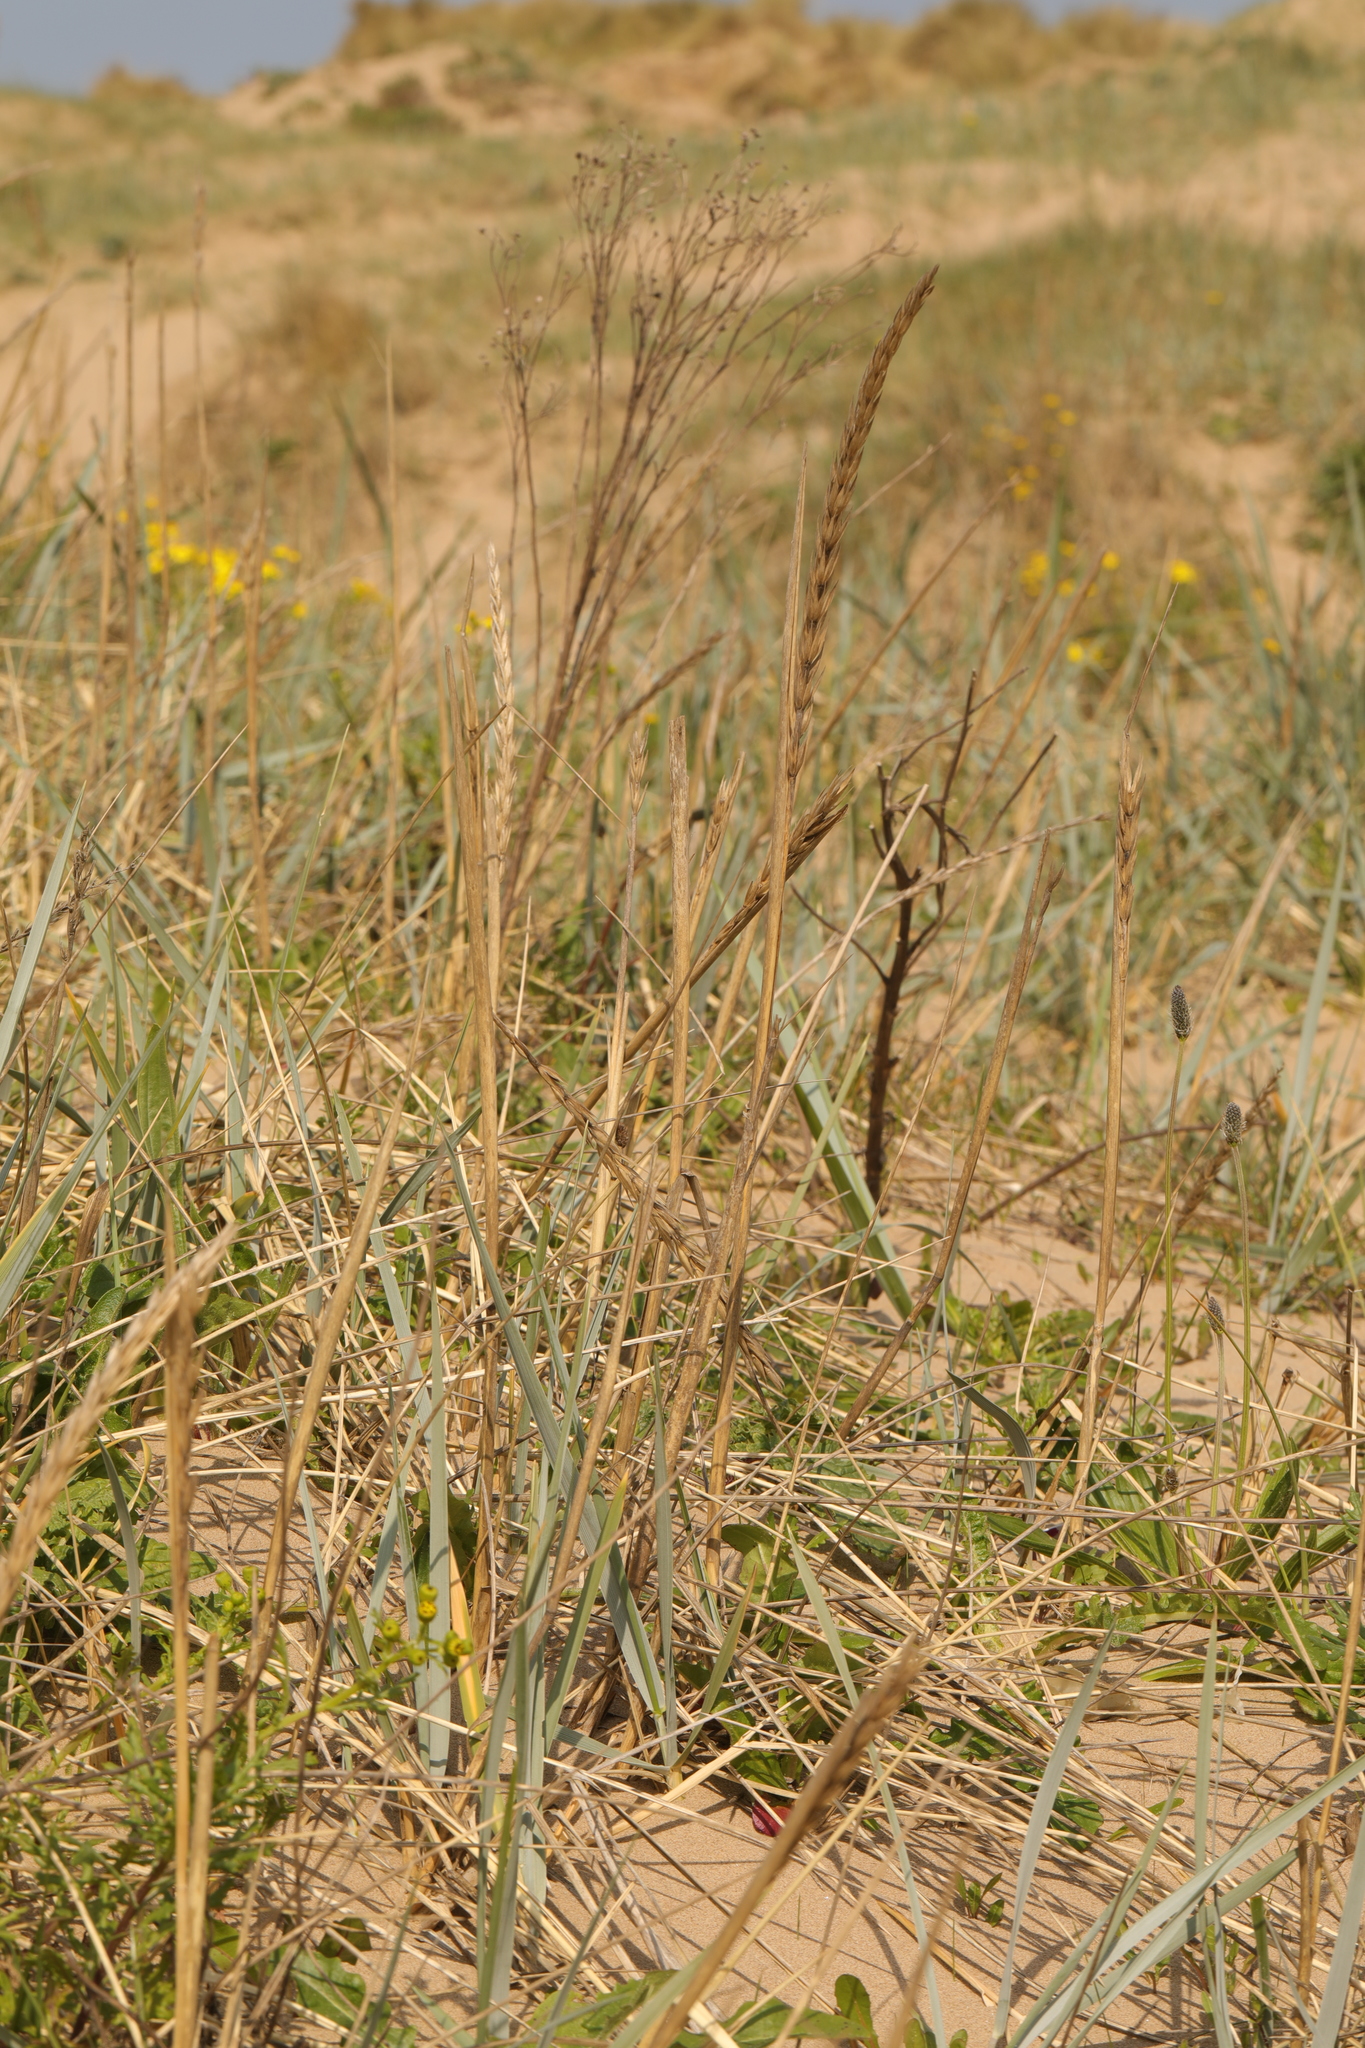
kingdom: Plantae
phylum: Tracheophyta
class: Liliopsida
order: Poales
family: Poaceae
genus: Leymus
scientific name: Leymus arenarius
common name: Lyme-grass
